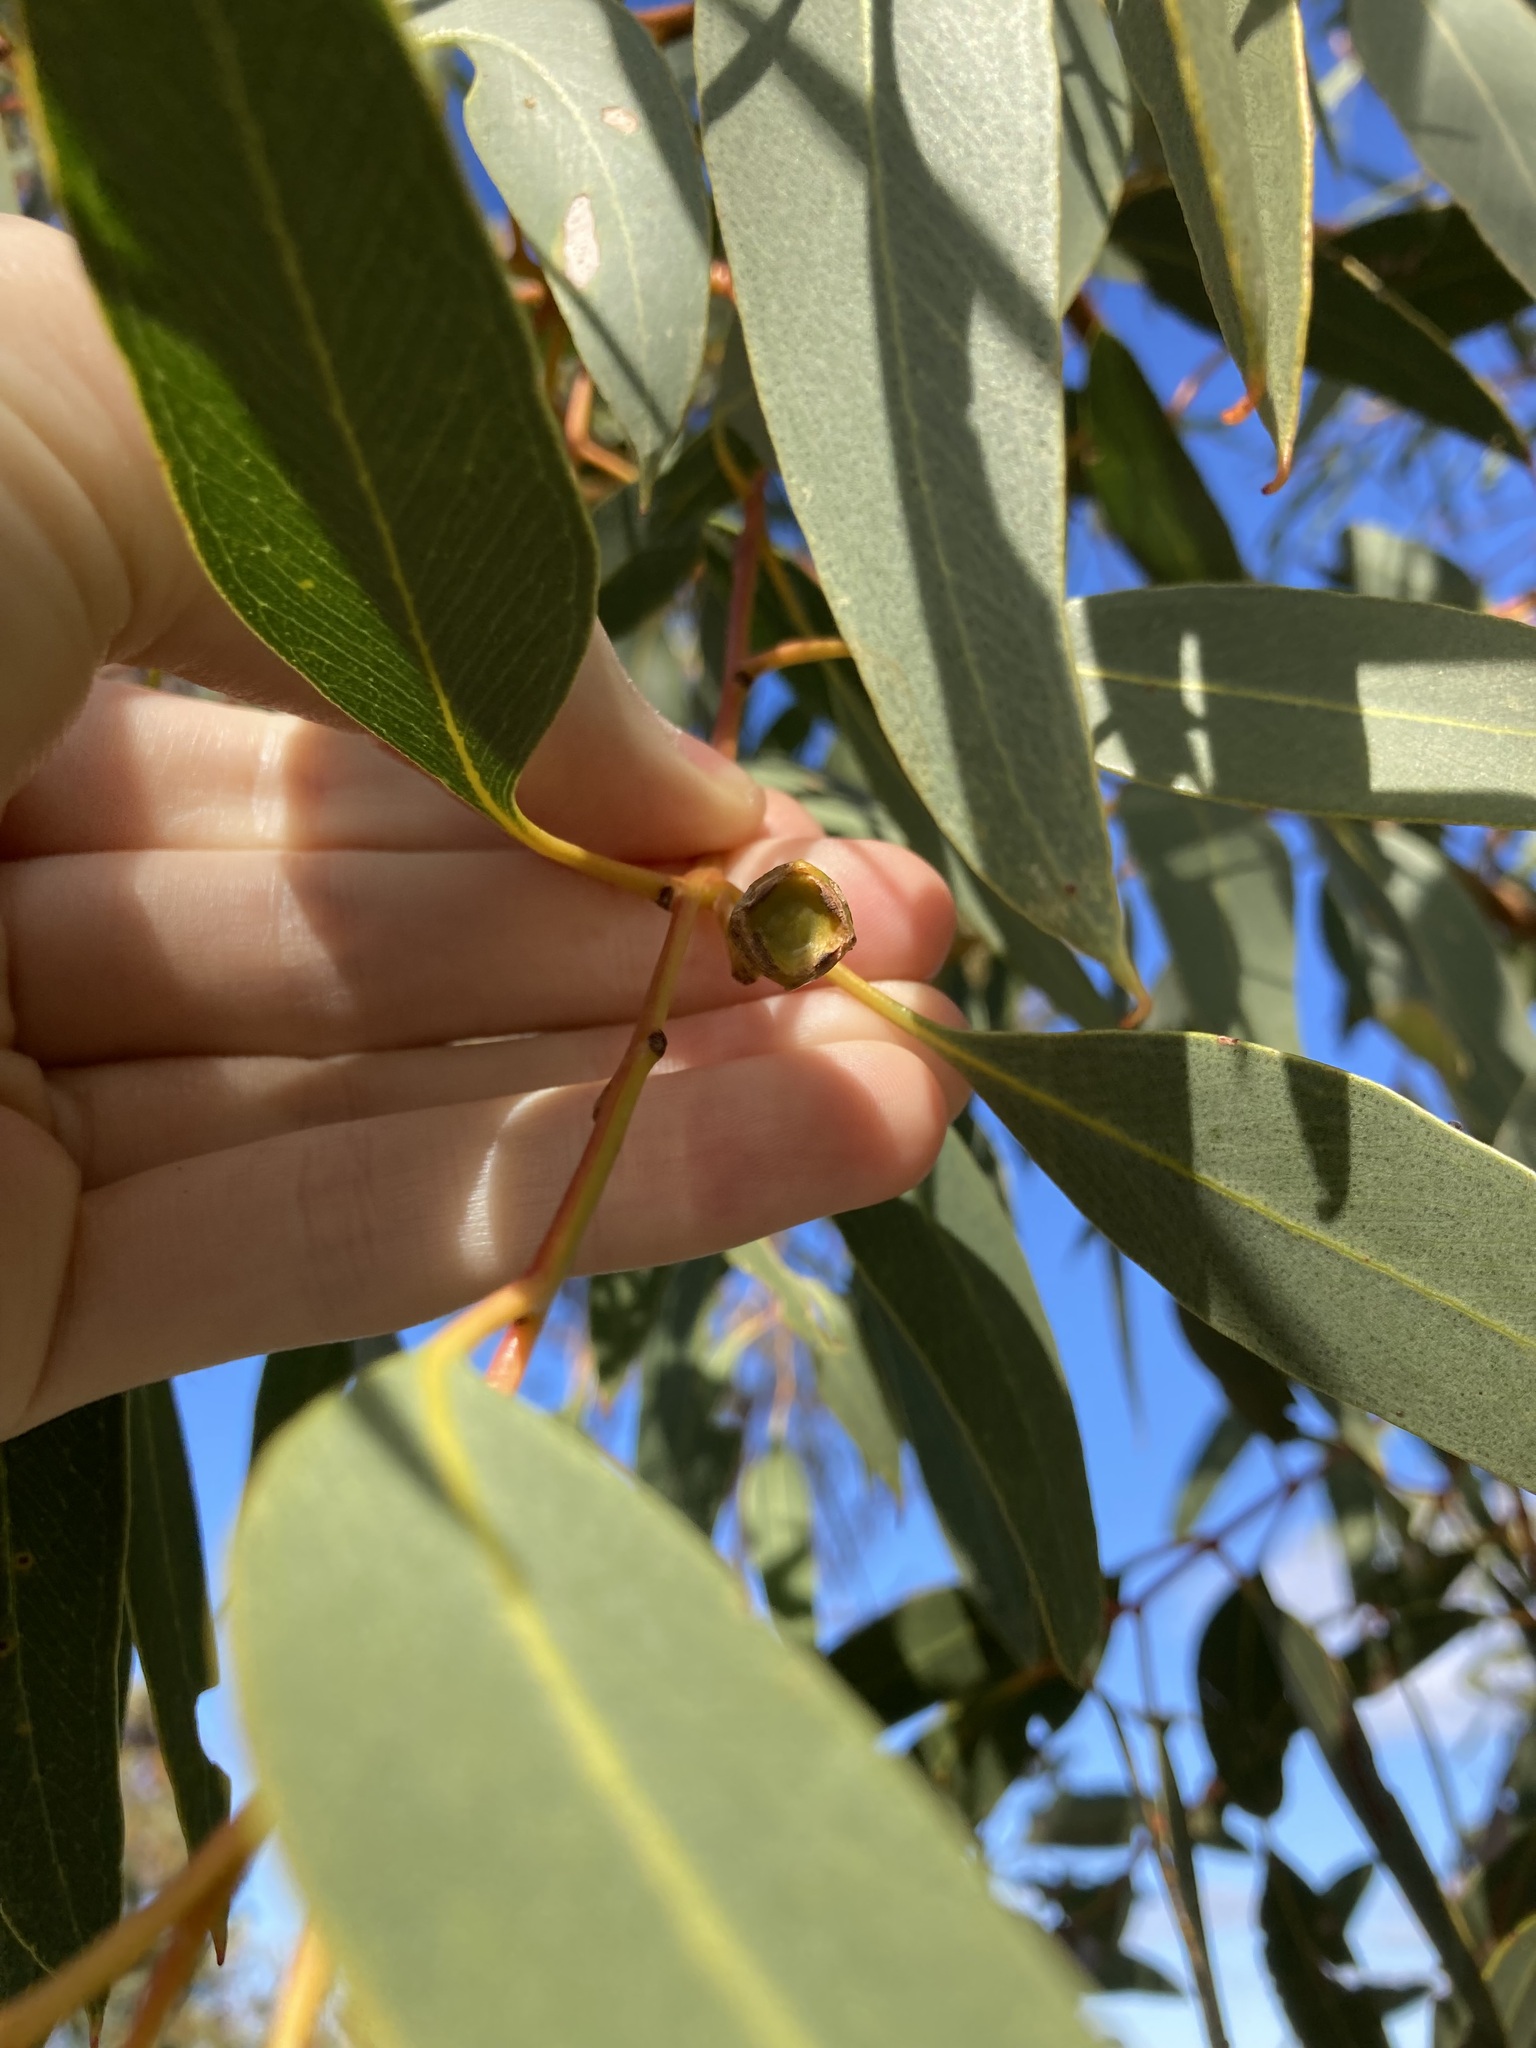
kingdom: Plantae
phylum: Tracheophyta
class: Magnoliopsida
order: Myrtales
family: Myrtaceae
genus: Eucalyptus
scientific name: Eucalyptus gittinsii
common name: Northern sandplain mallee
